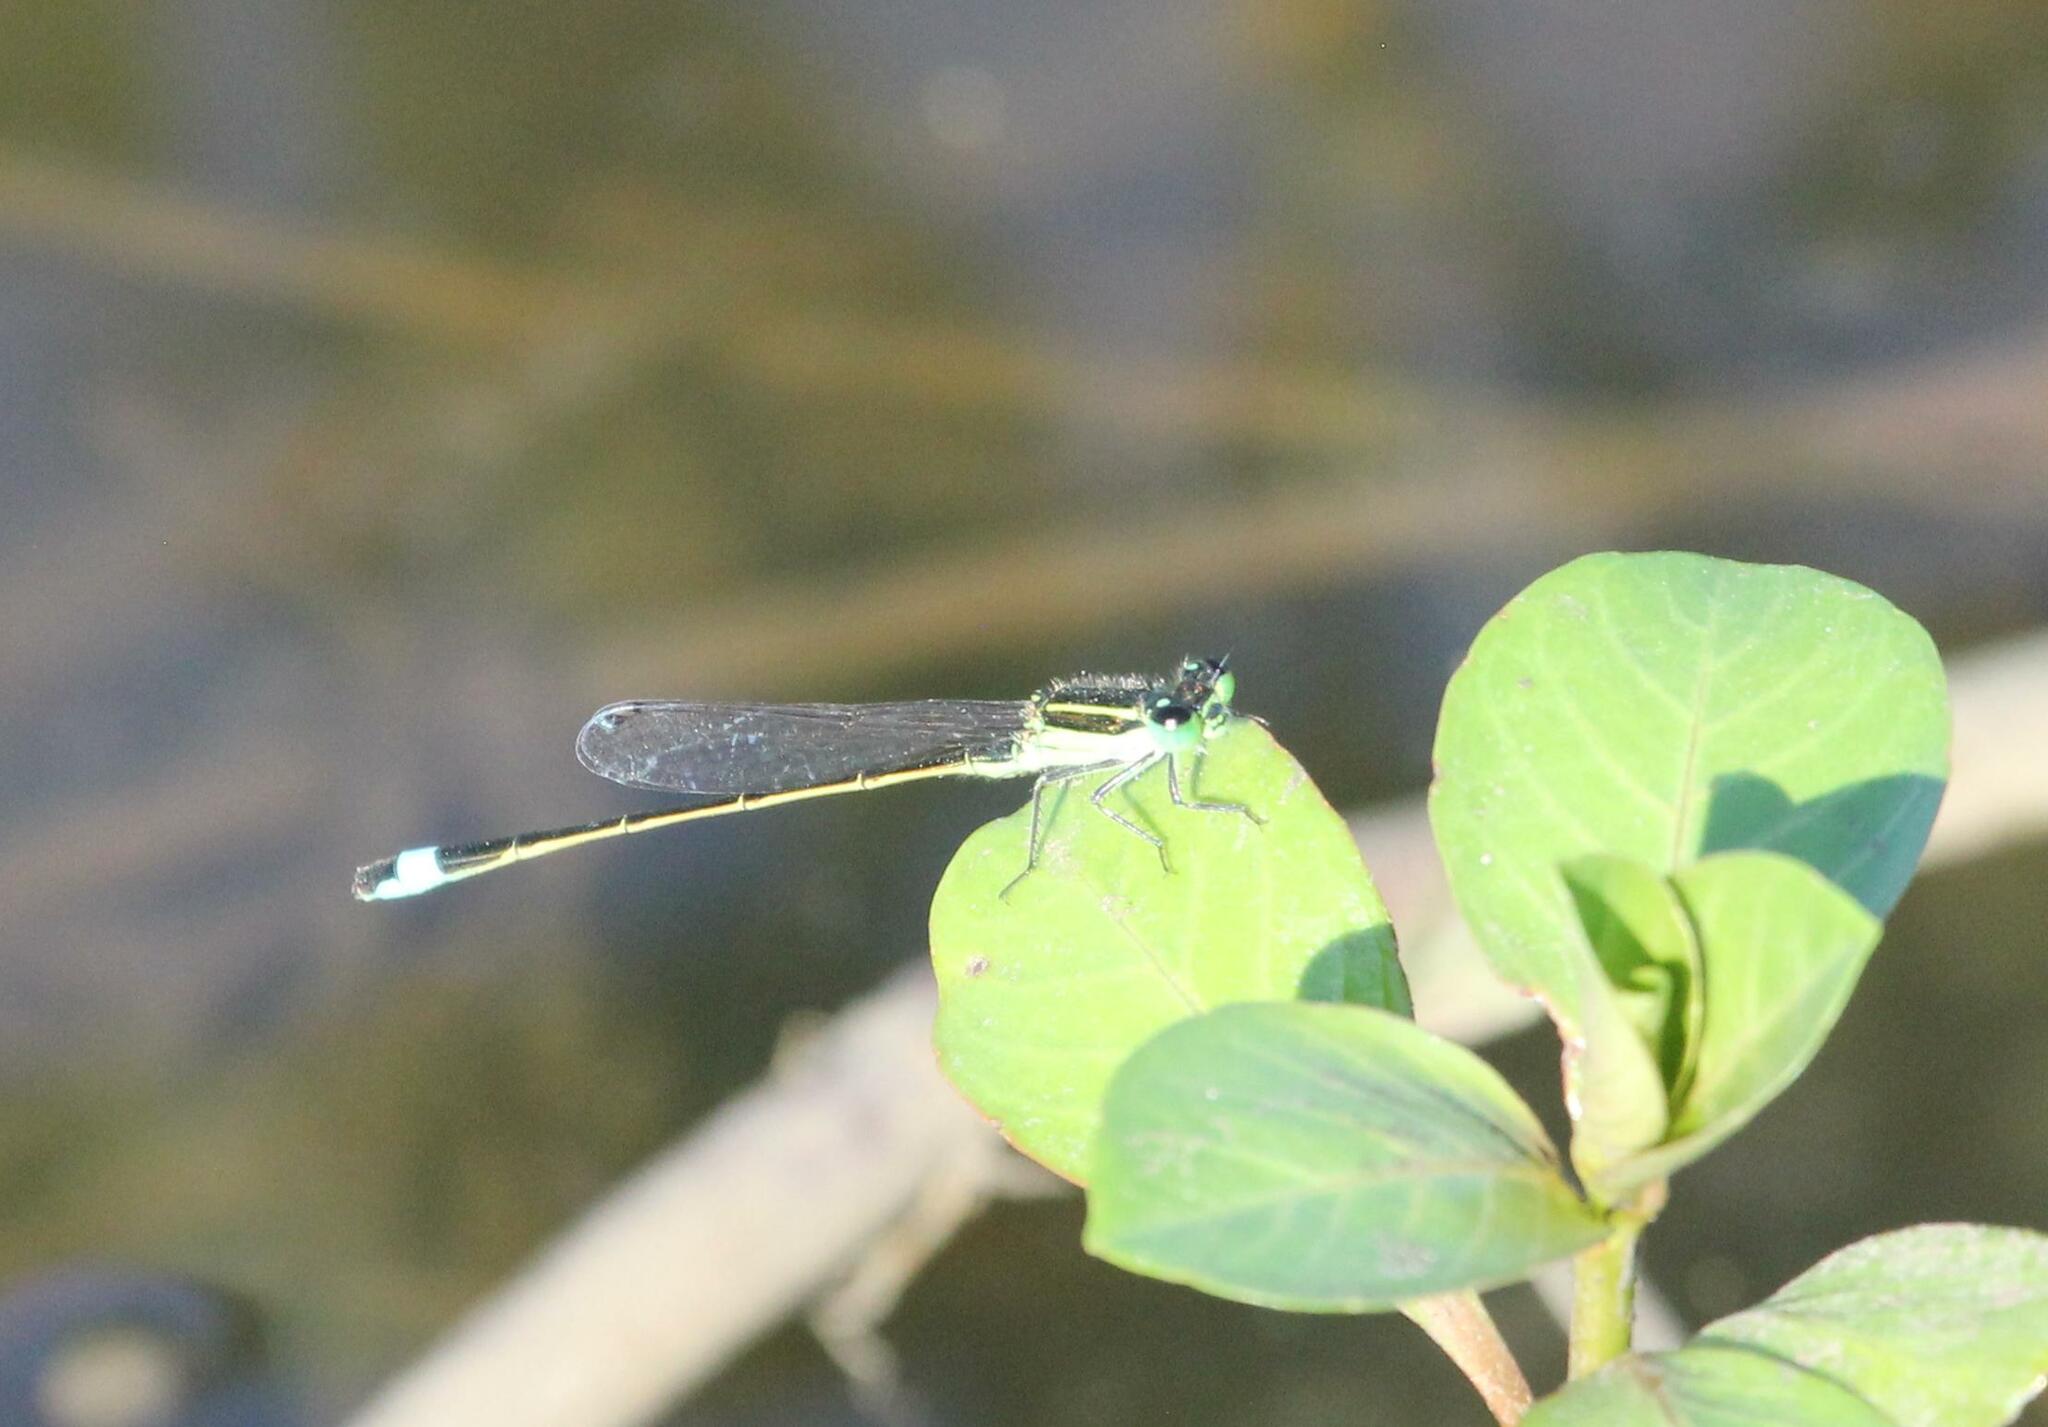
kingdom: Animalia
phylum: Arthropoda
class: Insecta
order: Odonata
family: Coenagrionidae
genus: Ischnura
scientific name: Ischnura ramburii
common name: Rambur's forktail
